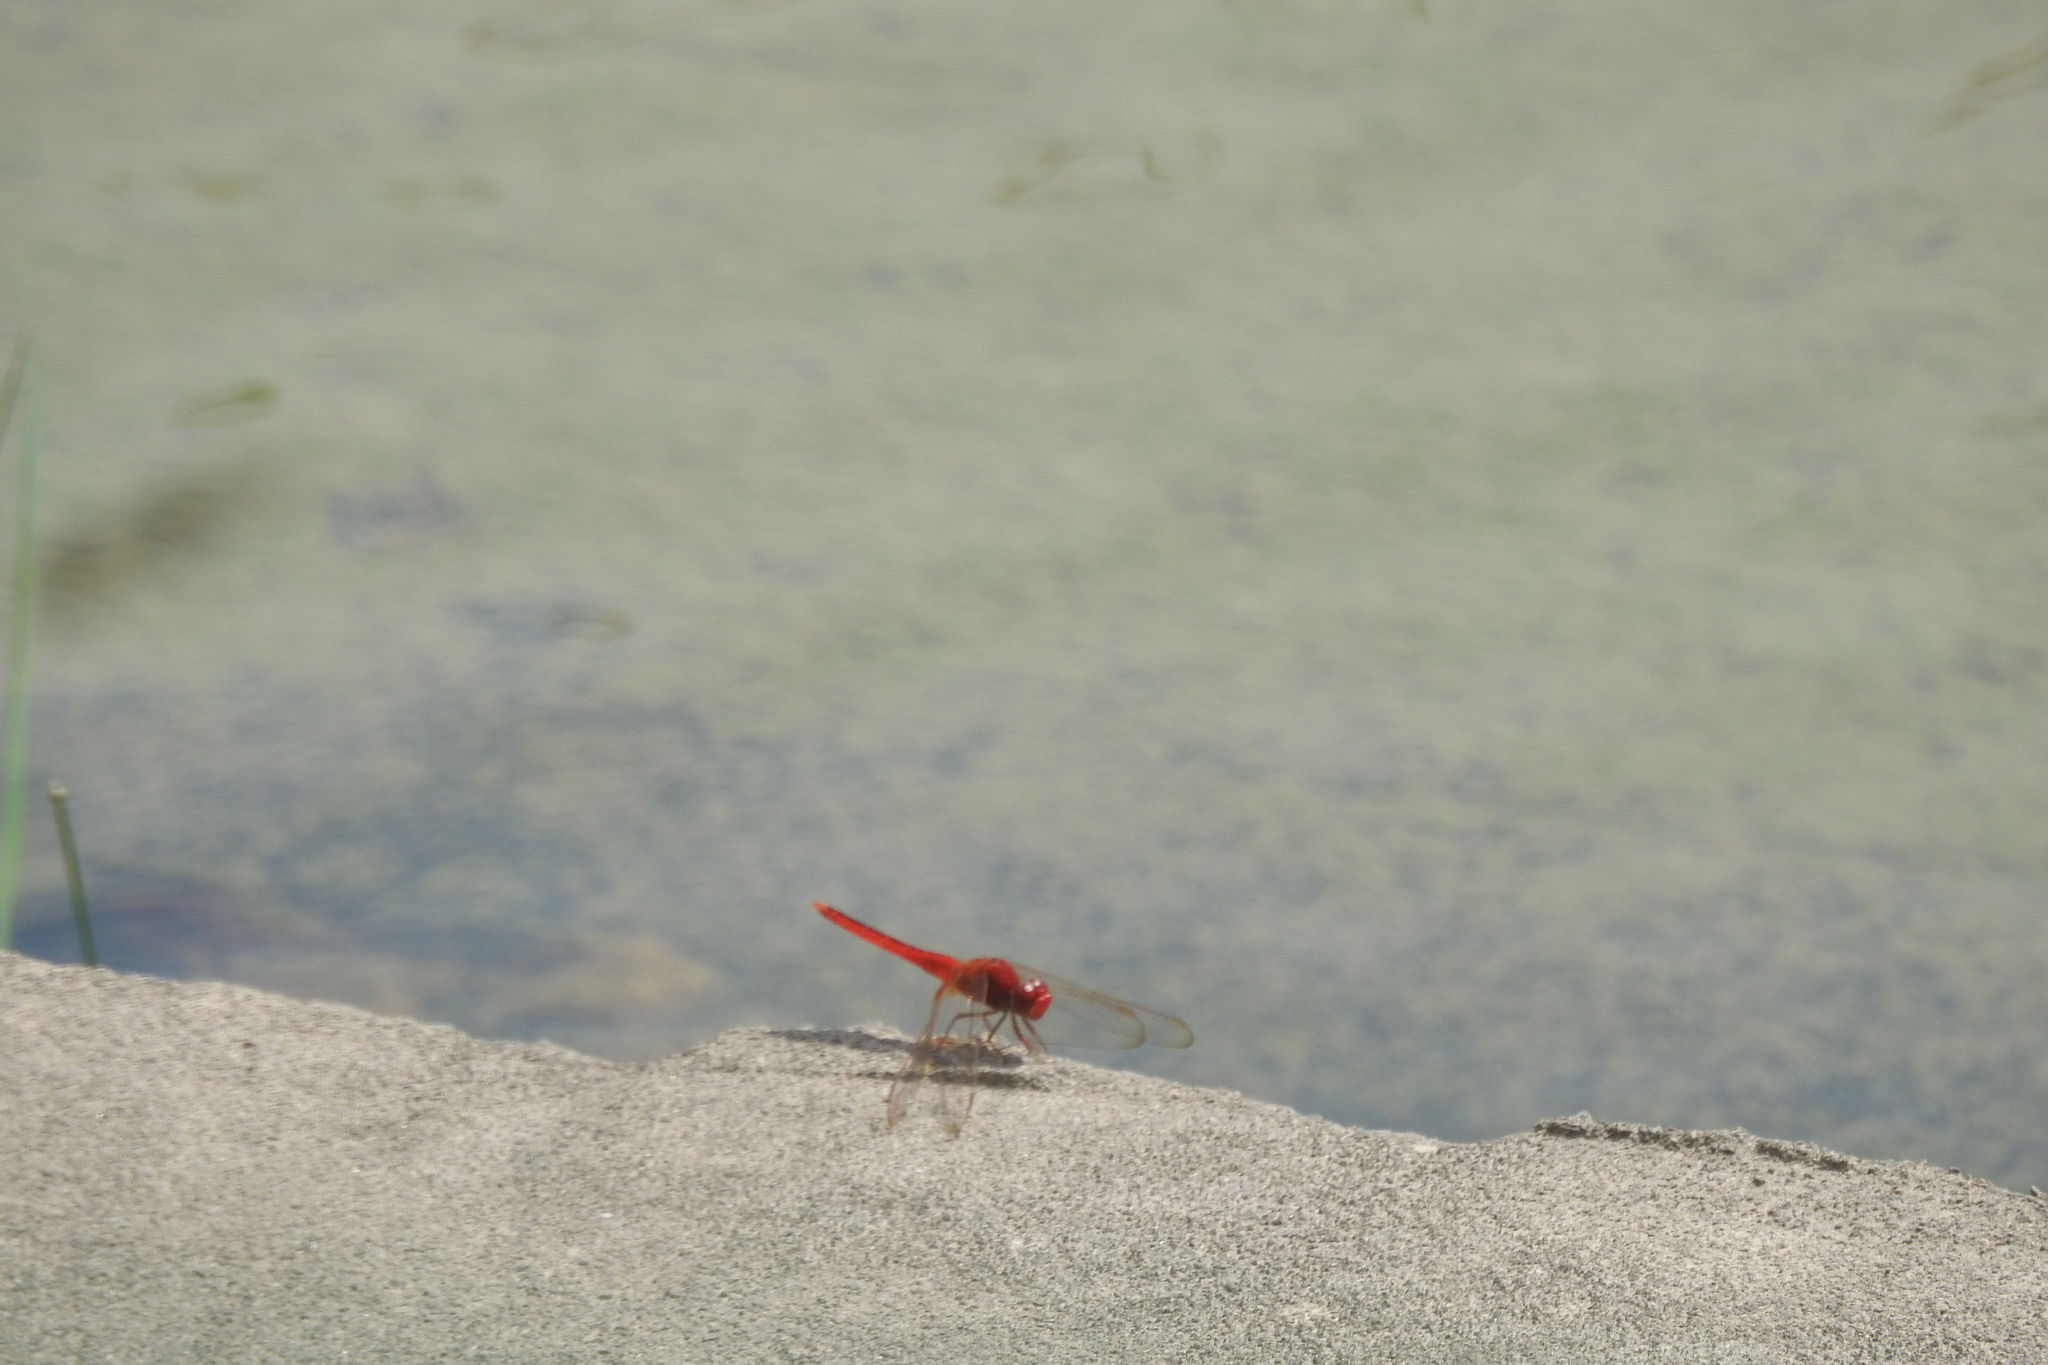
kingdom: Animalia
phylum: Arthropoda
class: Insecta
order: Odonata
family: Libellulidae
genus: Crocothemis
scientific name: Crocothemis servilia
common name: Scarlet skimmer
